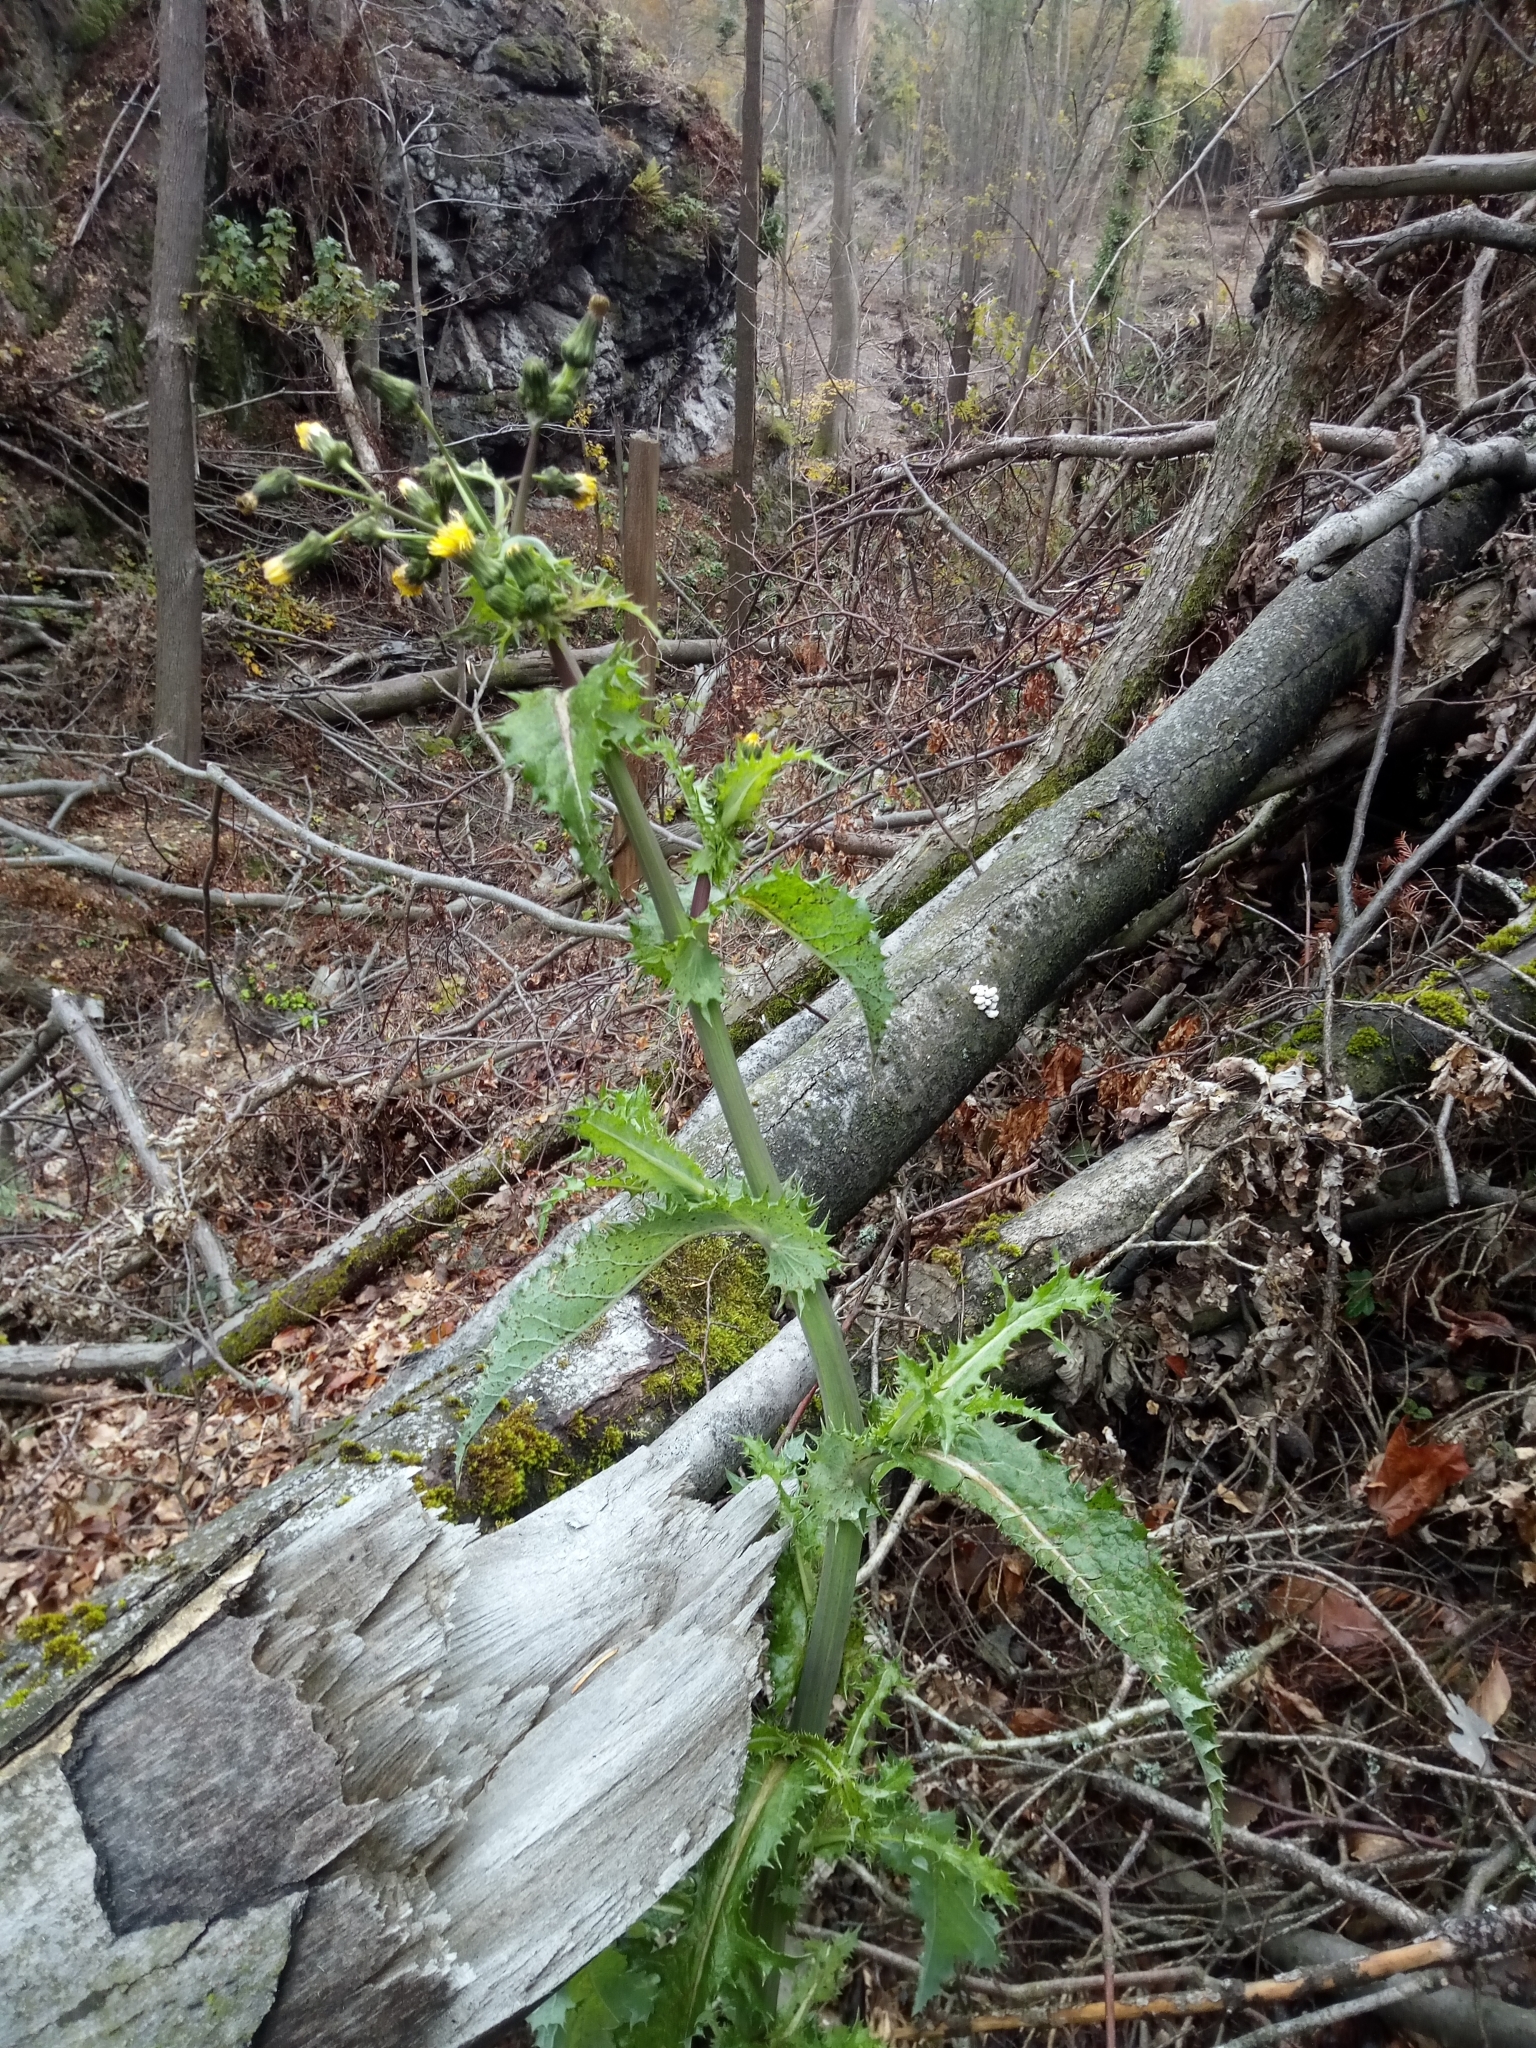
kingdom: Plantae
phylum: Tracheophyta
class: Magnoliopsida
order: Asterales
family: Asteraceae
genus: Sonchus
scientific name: Sonchus asper
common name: Prickly sow-thistle
